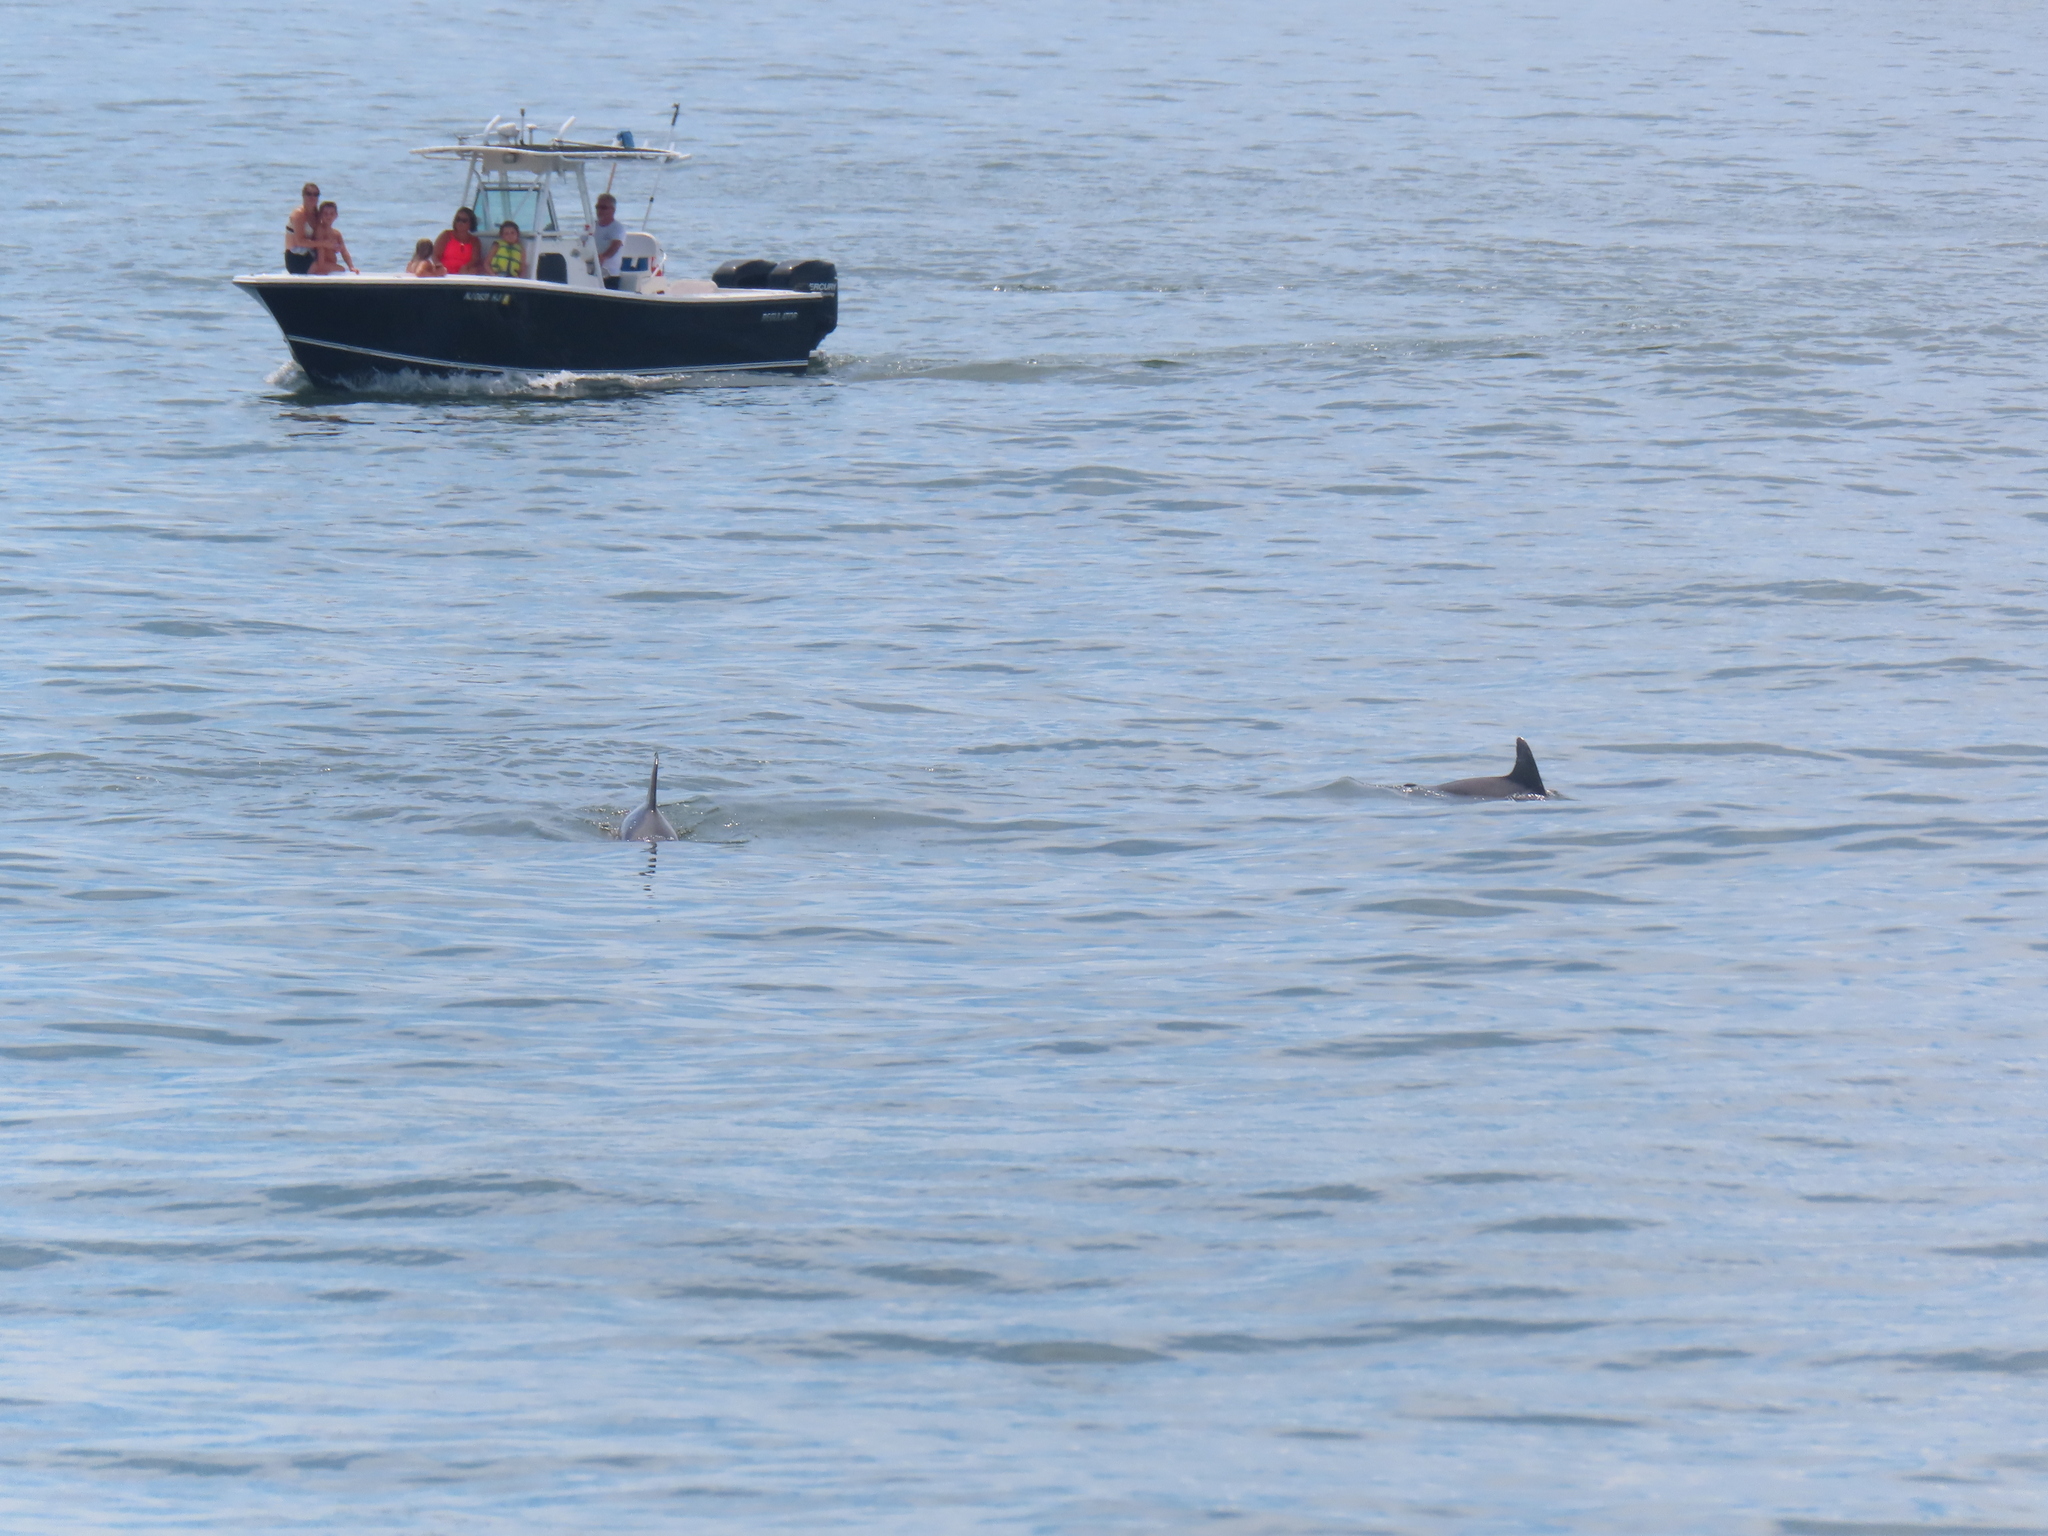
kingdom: Animalia
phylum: Chordata
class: Mammalia
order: Cetacea
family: Delphinidae
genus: Tursiops
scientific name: Tursiops truncatus
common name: Bottlenose dolphin
